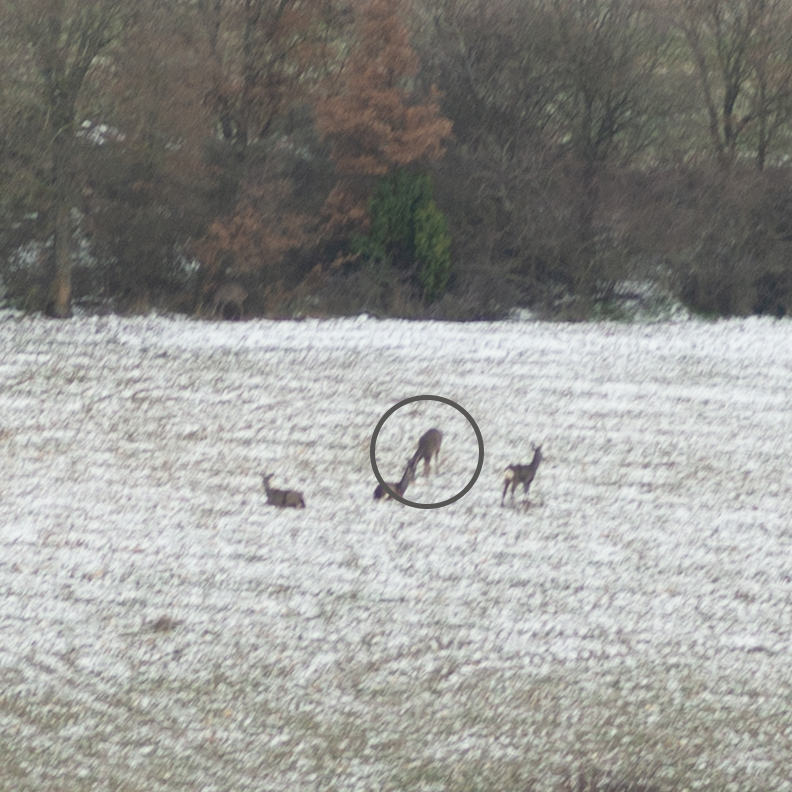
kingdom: Animalia
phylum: Chordata
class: Mammalia
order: Artiodactyla
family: Cervidae
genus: Capreolus
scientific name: Capreolus capreolus
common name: Western roe deer
